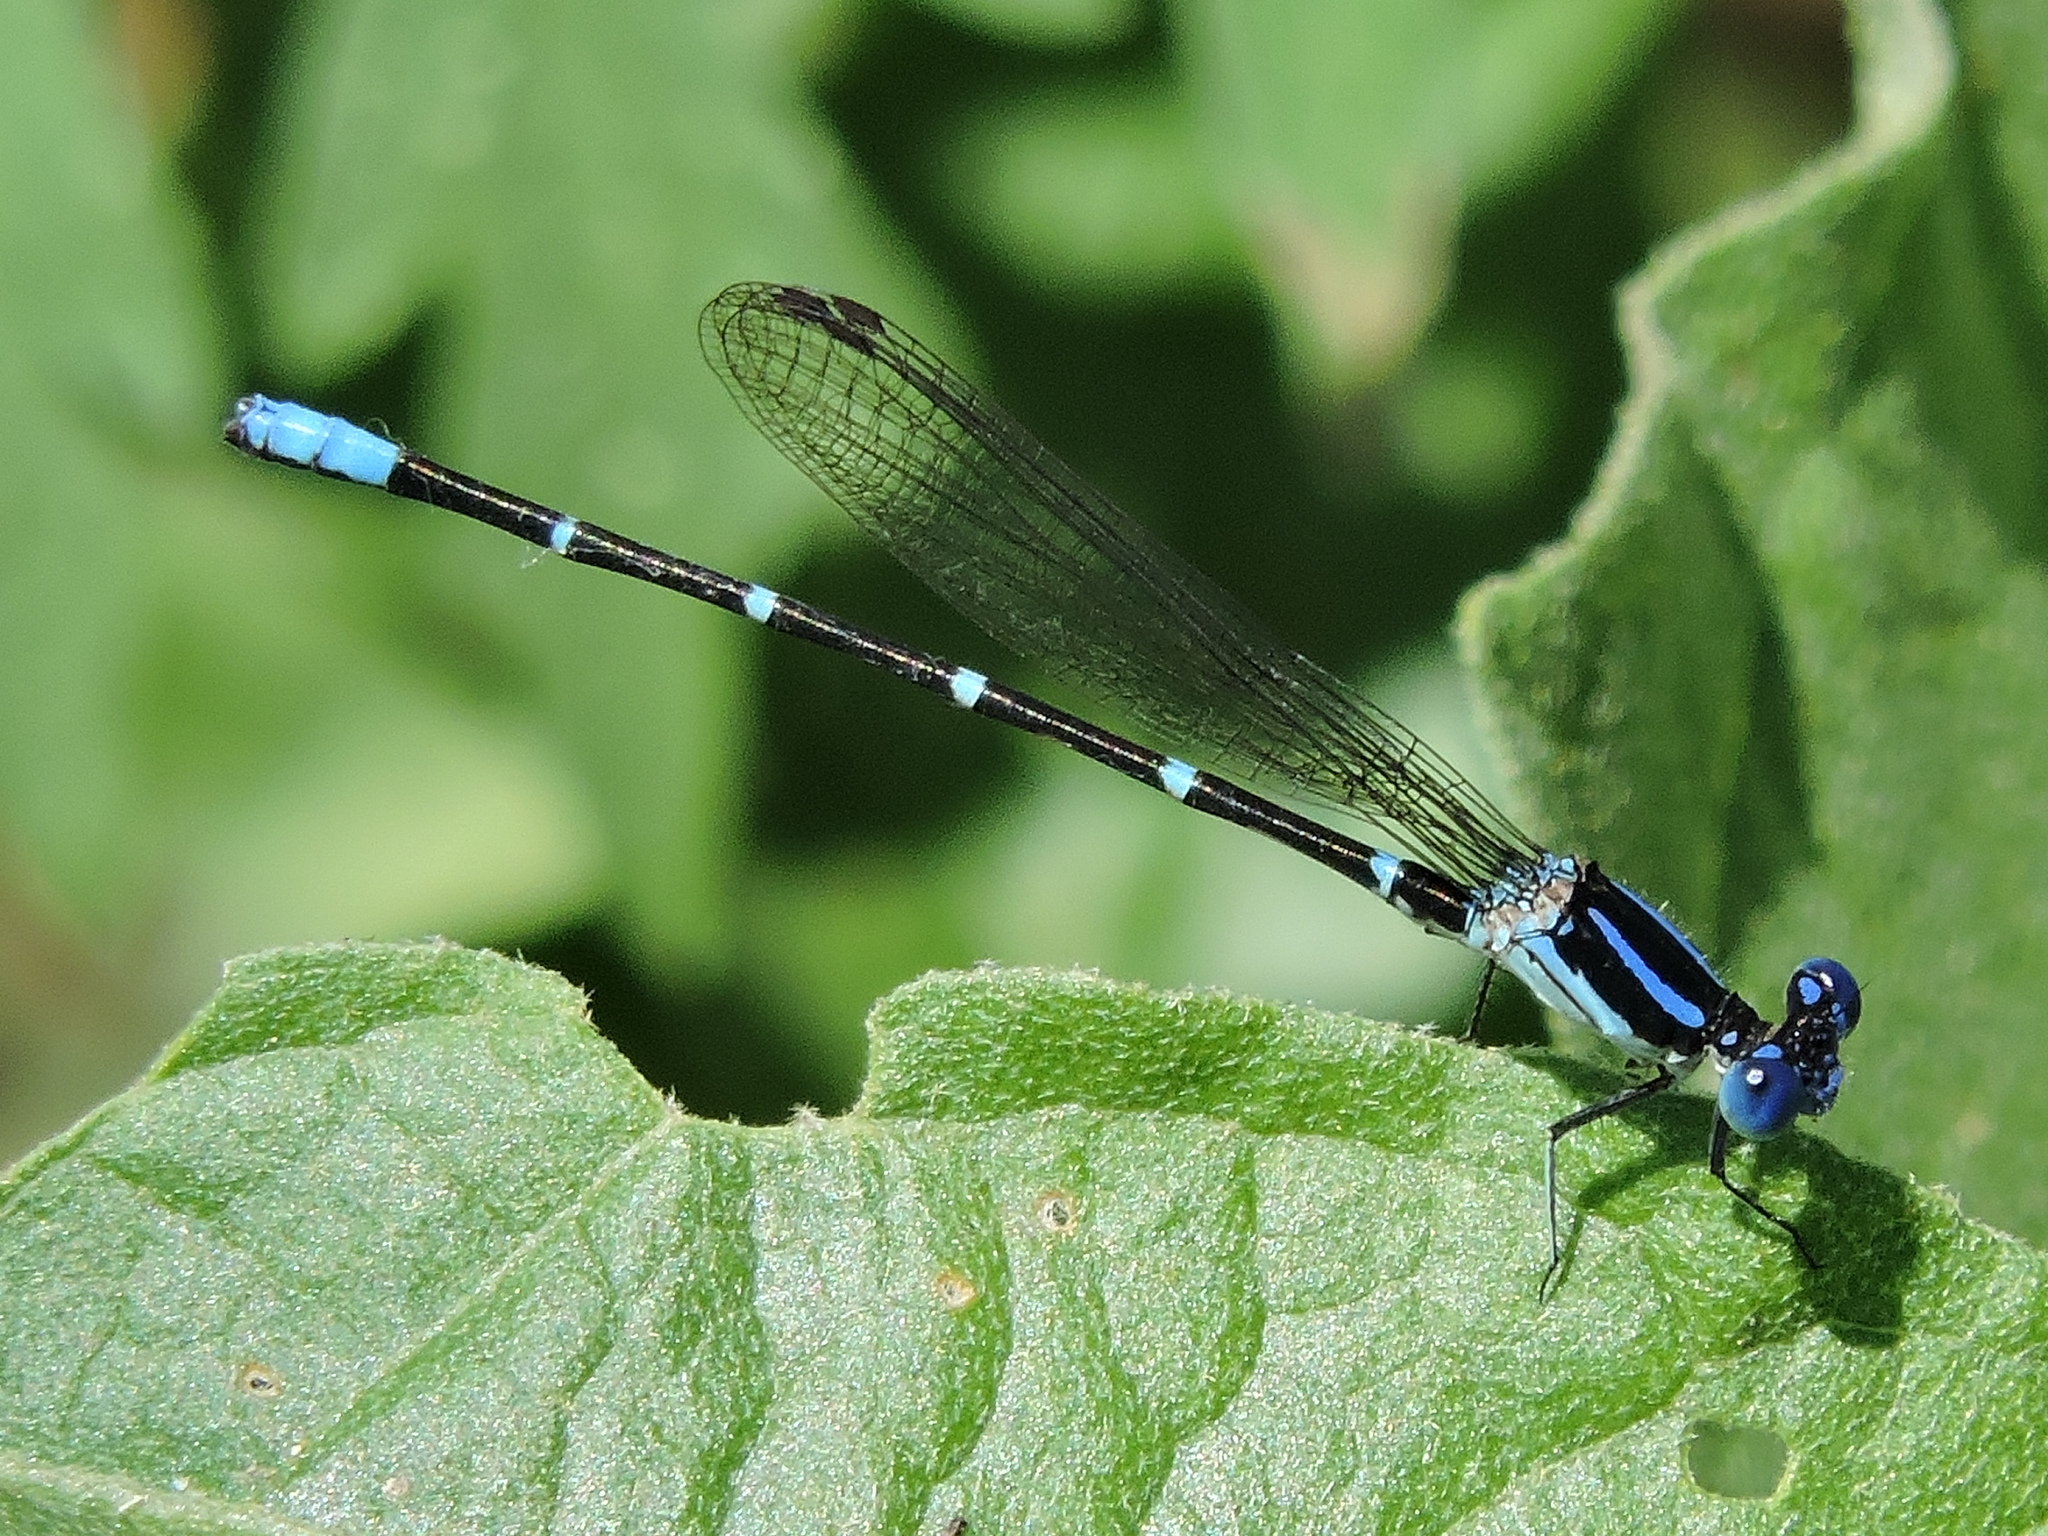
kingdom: Animalia
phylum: Arthropoda
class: Insecta
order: Odonata
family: Coenagrionidae
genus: Argia
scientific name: Argia sedula
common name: Blue-ringed dancer
